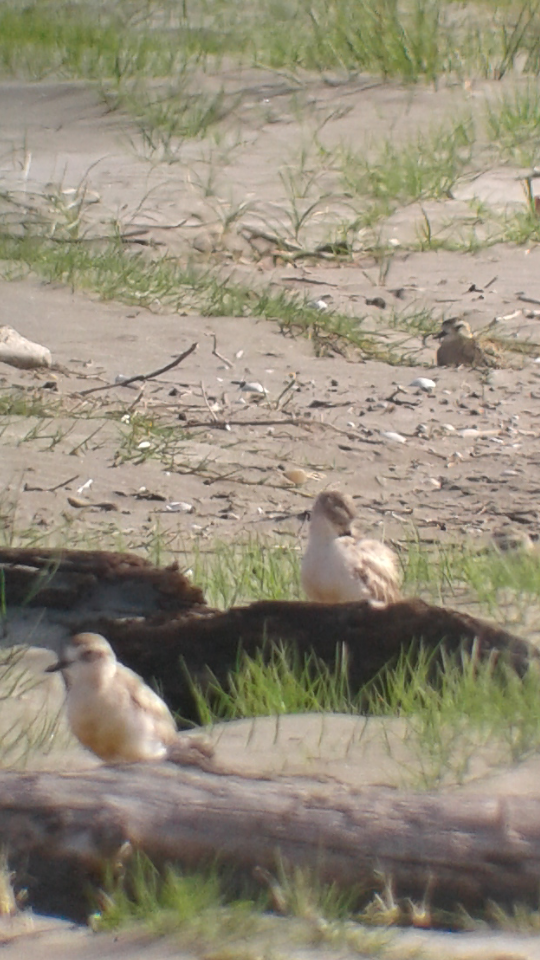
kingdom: Animalia
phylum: Chordata
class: Aves
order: Charadriiformes
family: Charadriidae
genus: Anarhynchus
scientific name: Anarhynchus
